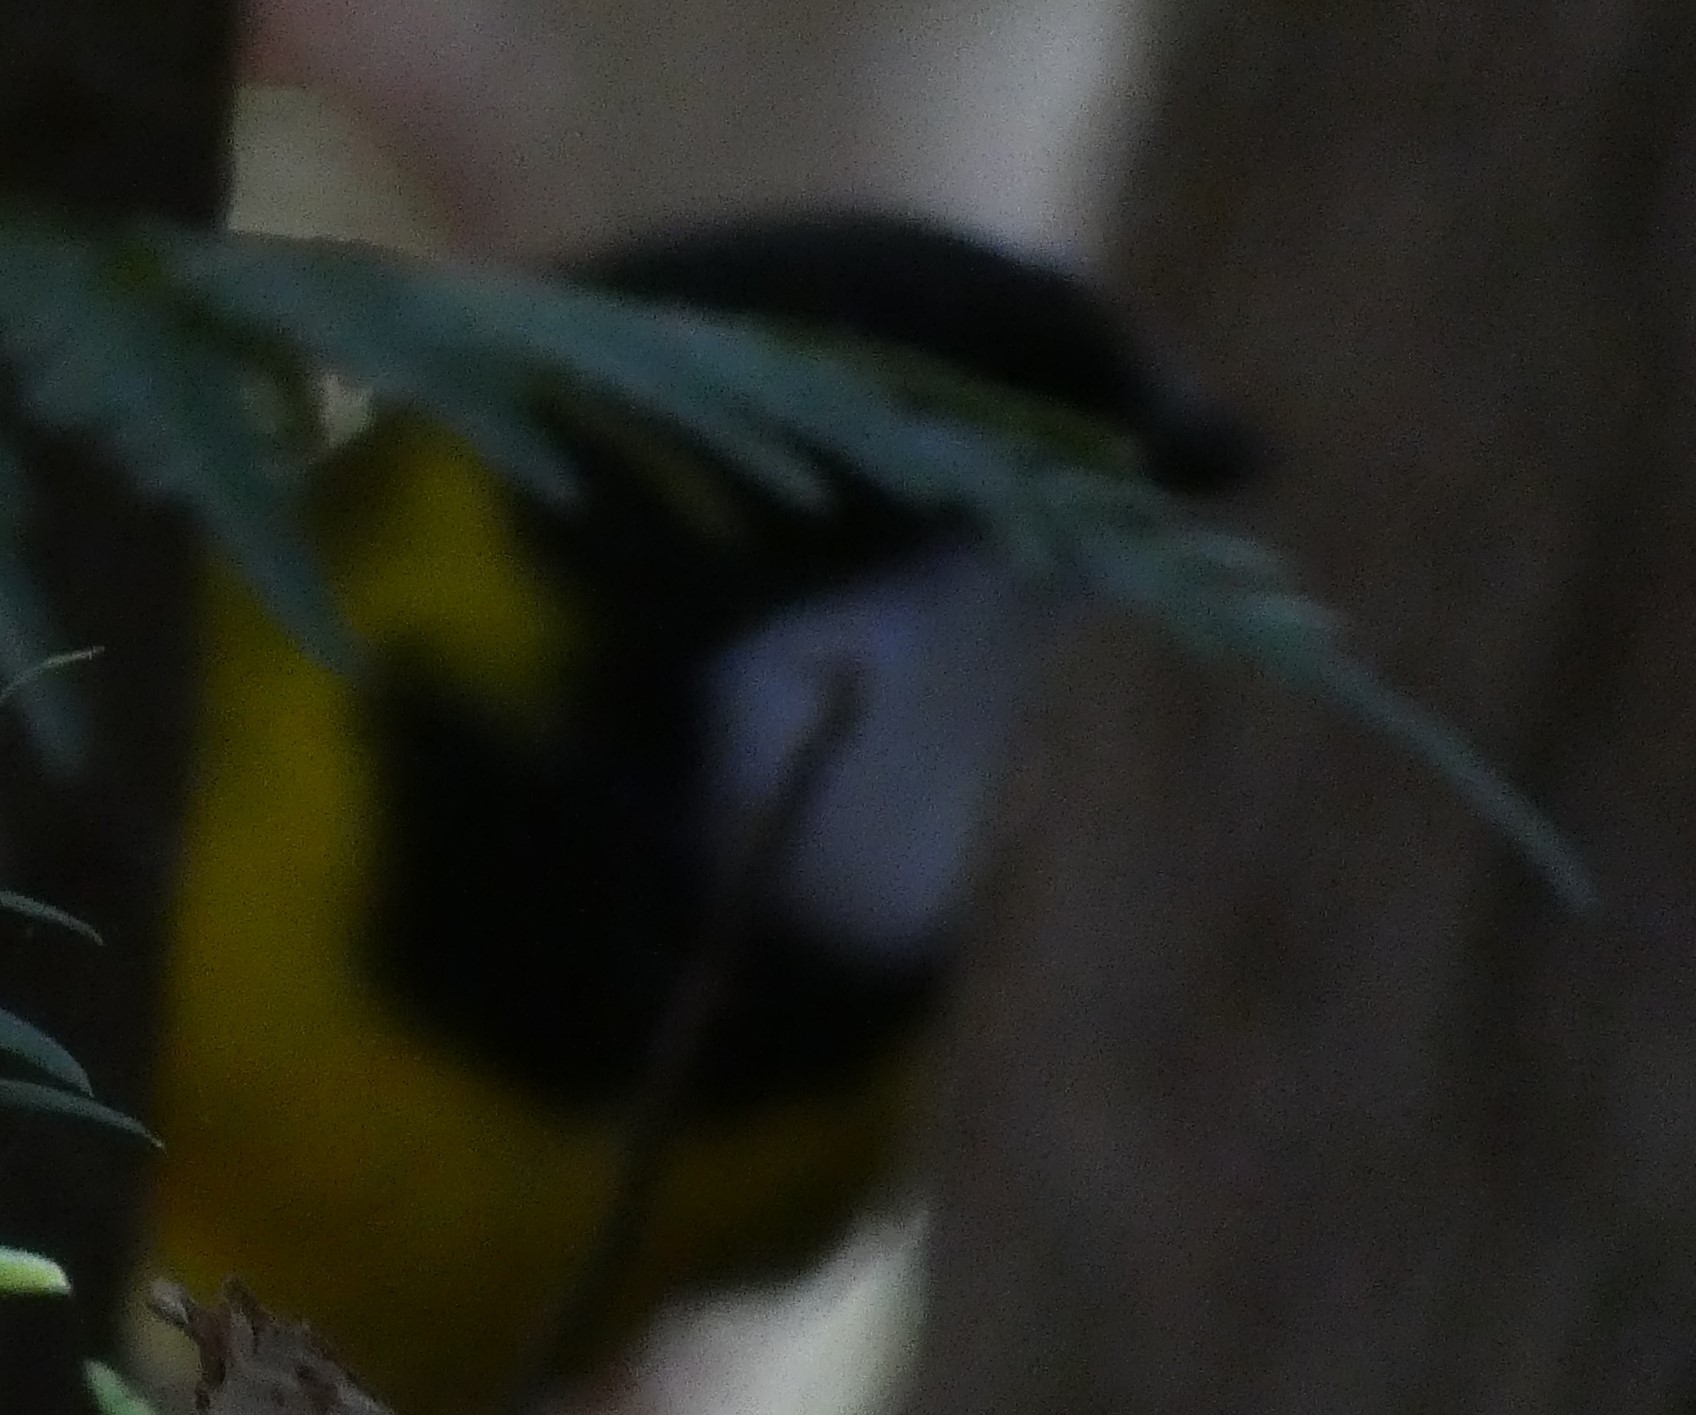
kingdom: Animalia
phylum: Chordata
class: Aves
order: Passeriformes
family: Pachycephalidae
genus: Pachycephala
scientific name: Pachycephala pectoralis
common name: Australian golden whistler
